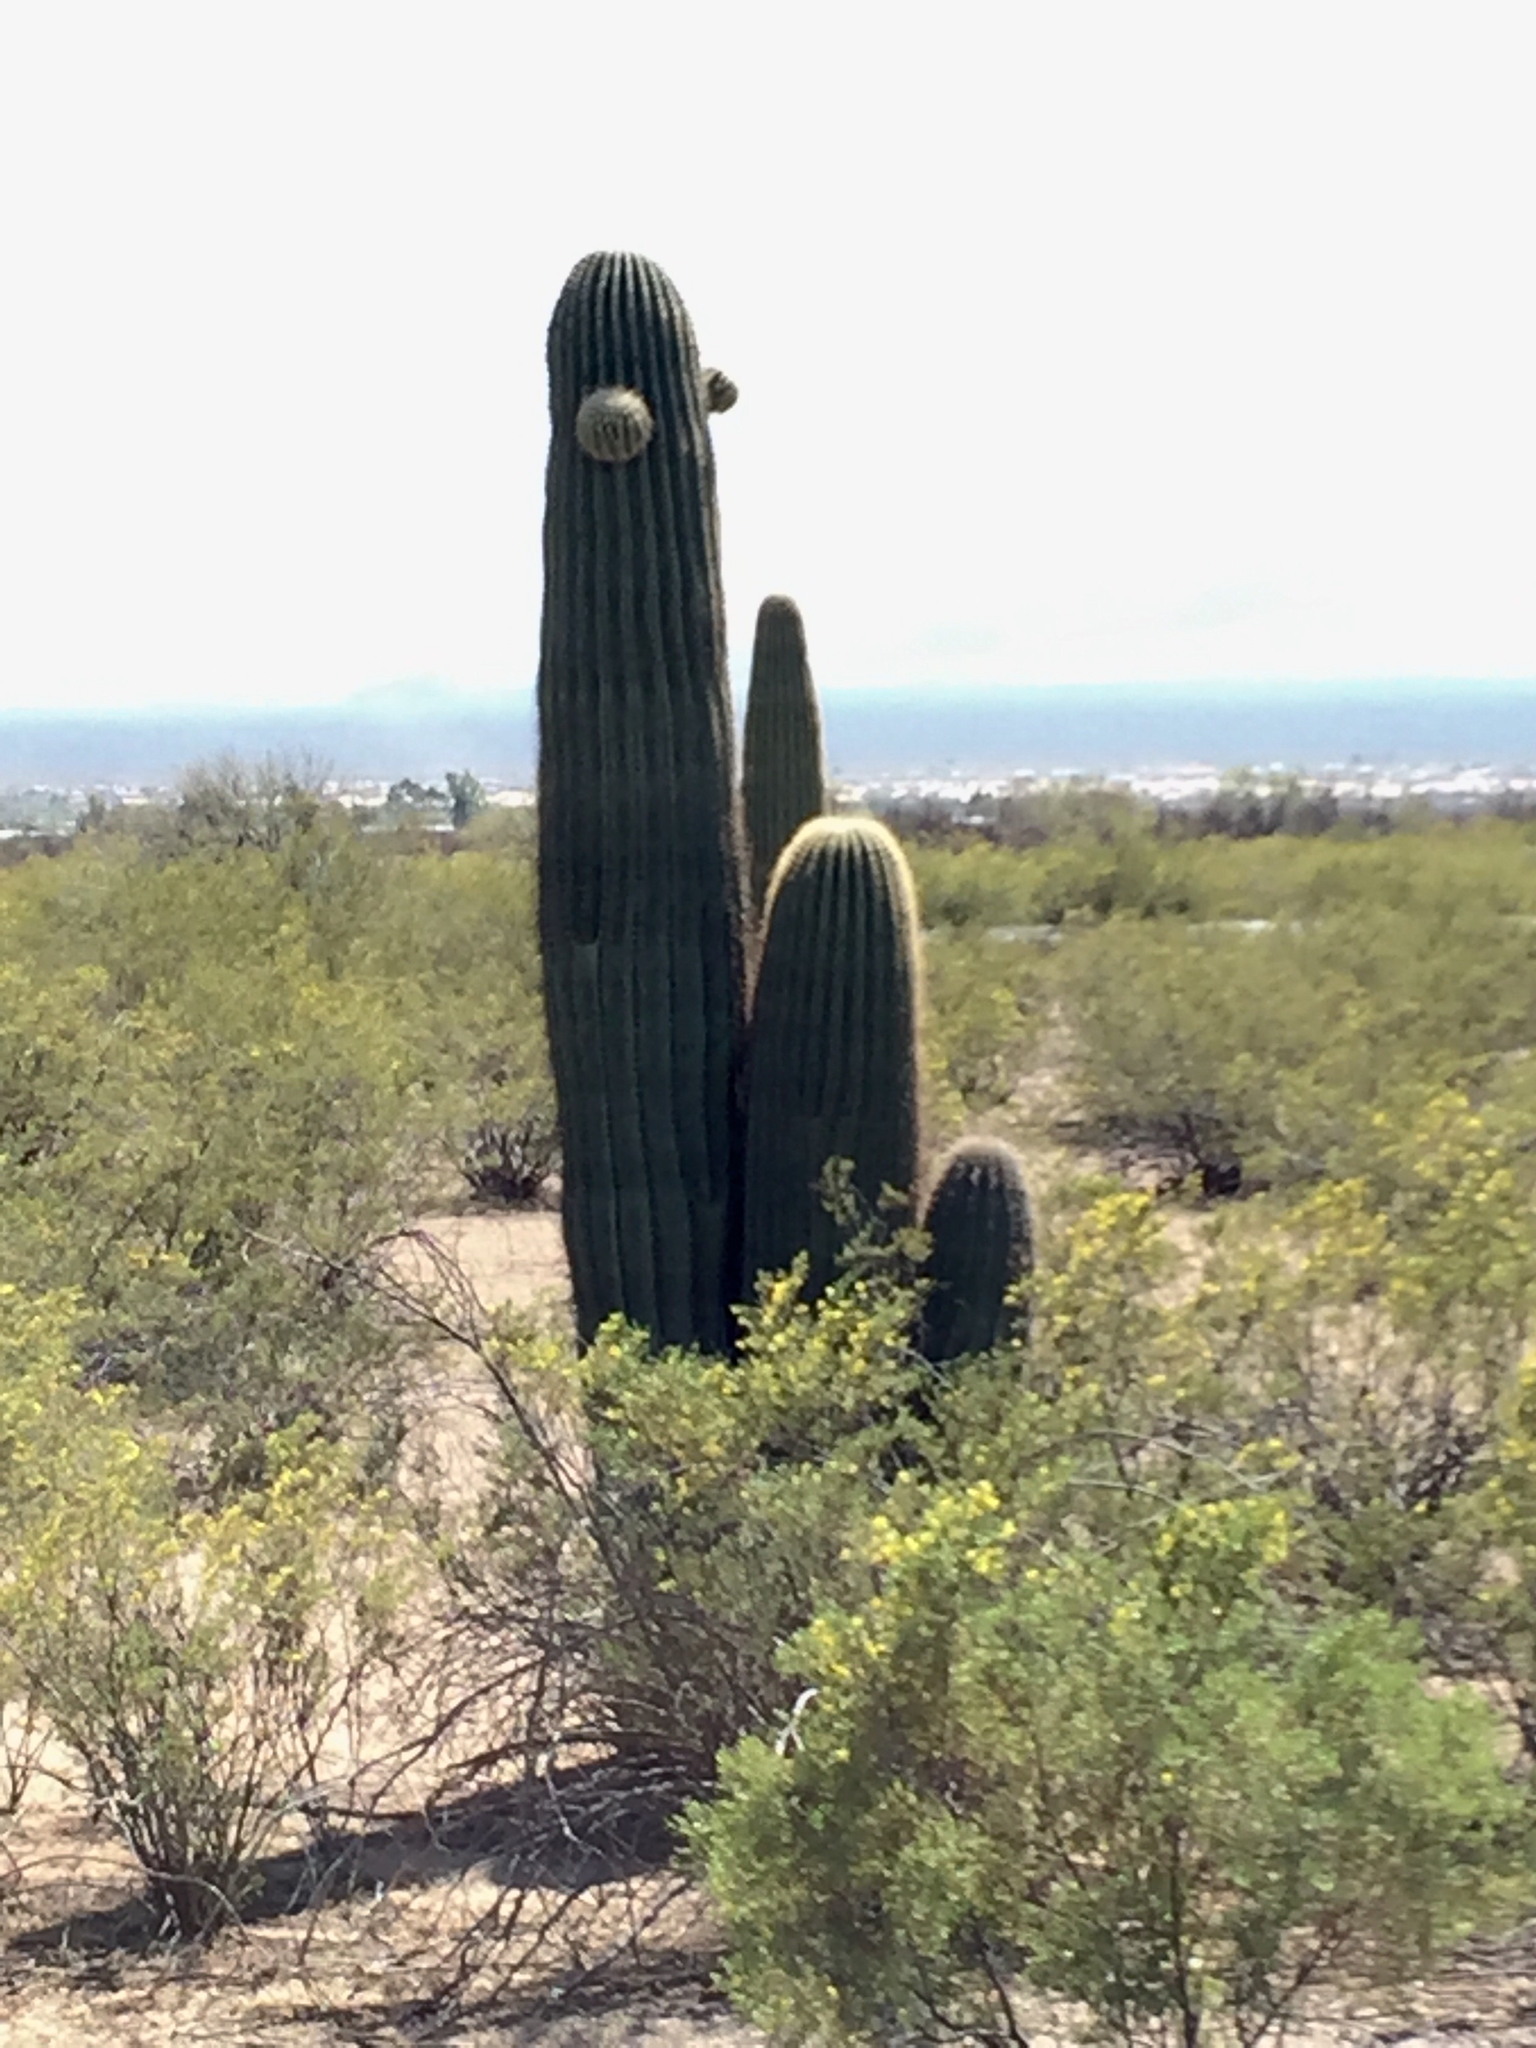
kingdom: Plantae
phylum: Tracheophyta
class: Magnoliopsida
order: Caryophyllales
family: Cactaceae
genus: Carnegiea
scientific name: Carnegiea gigantea
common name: Saguaro
